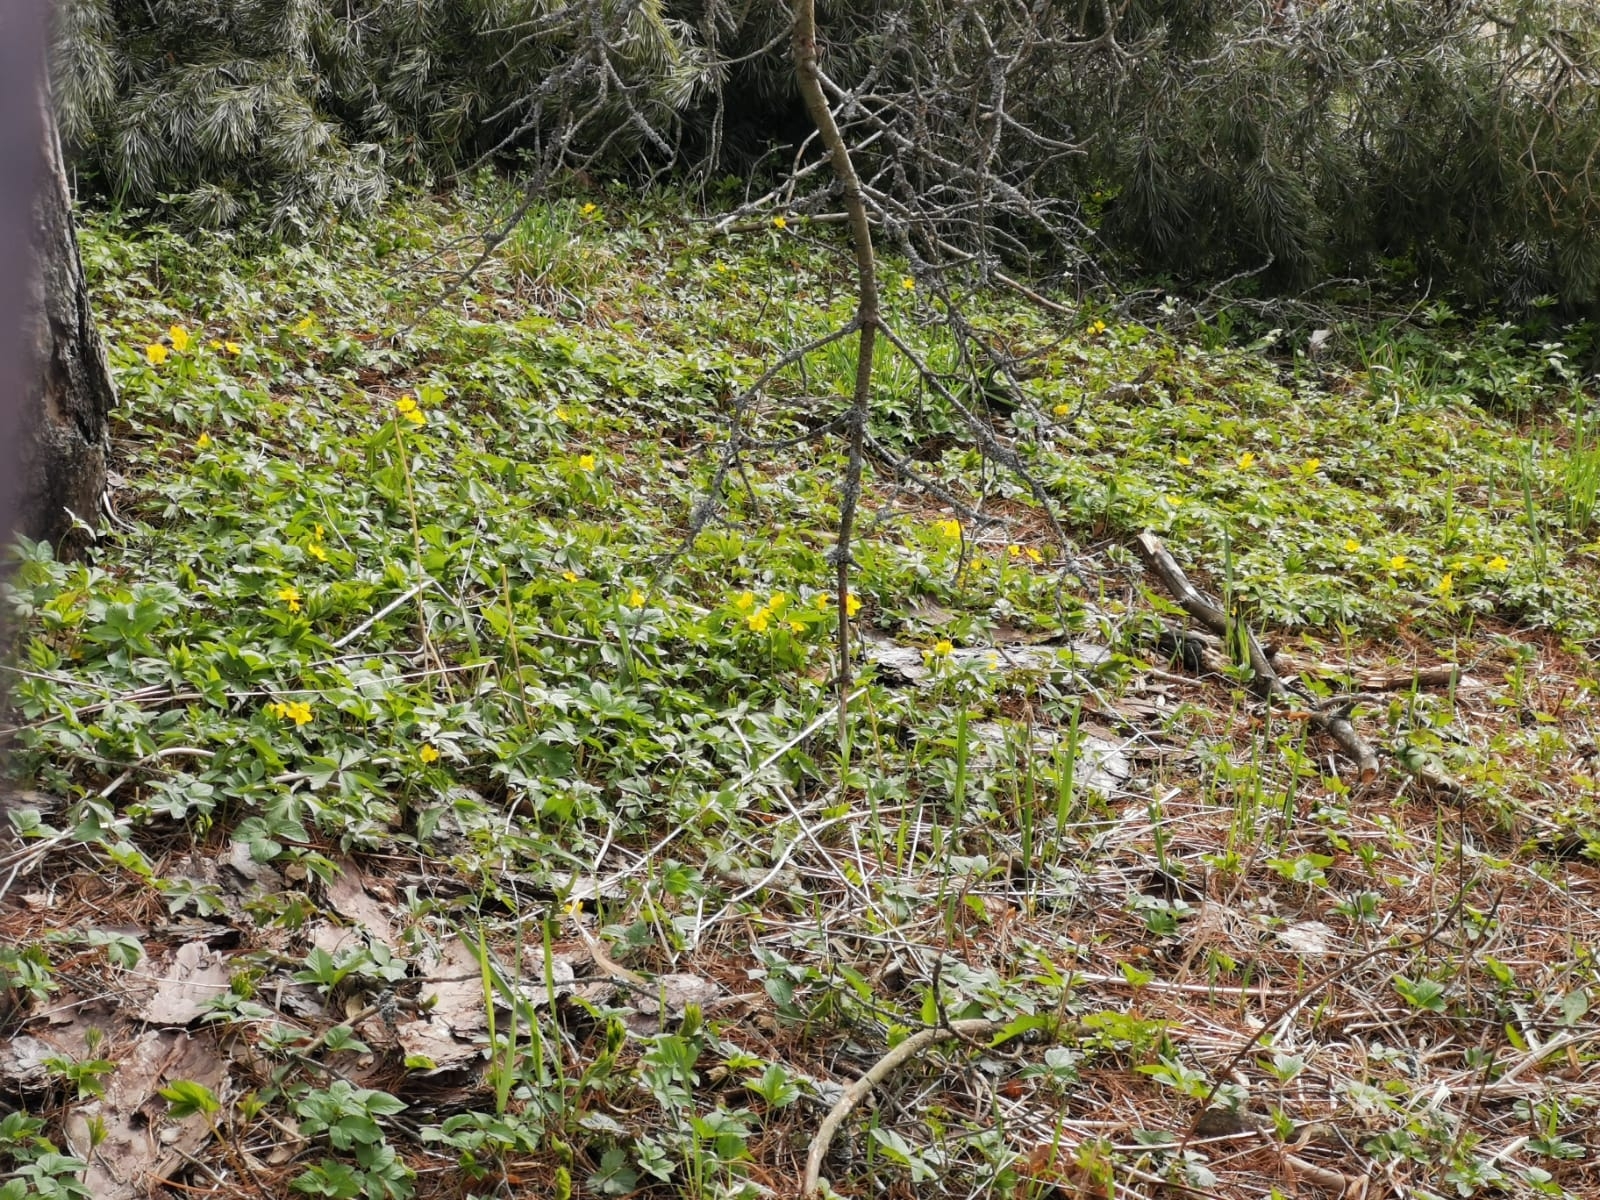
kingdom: Plantae
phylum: Tracheophyta
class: Magnoliopsida
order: Ranunculales
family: Ranunculaceae
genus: Anemone
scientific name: Anemone ranunculoides
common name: Yellow anemone
